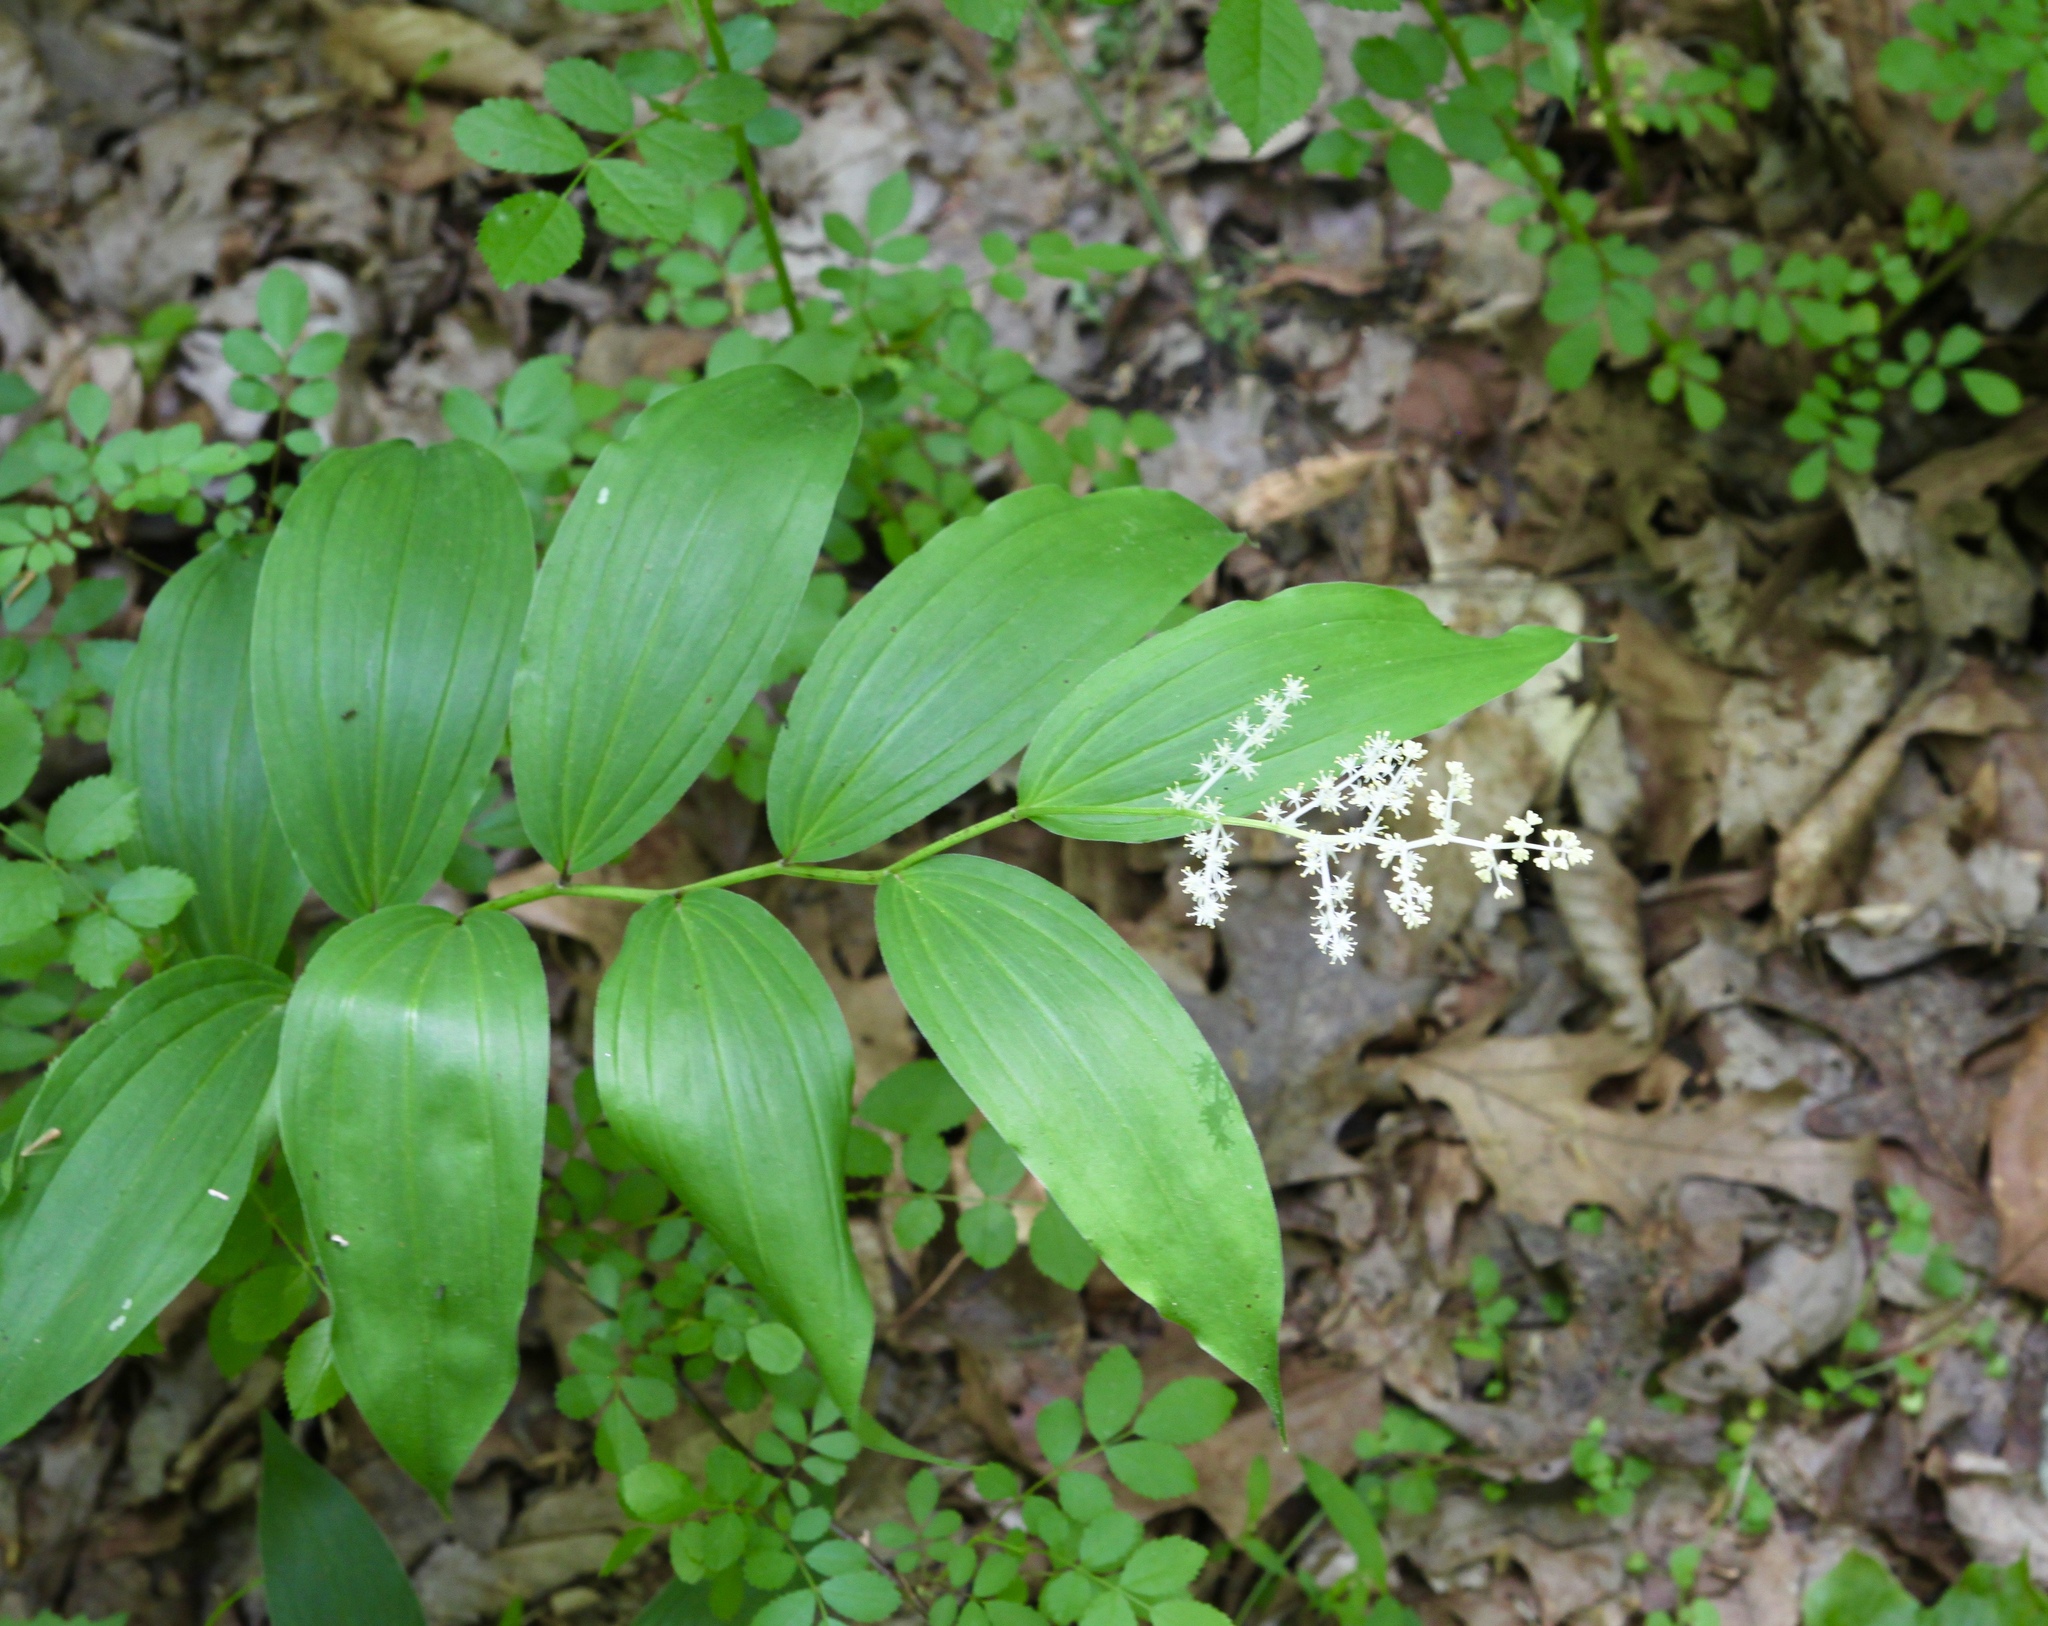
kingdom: Plantae
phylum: Tracheophyta
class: Liliopsida
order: Asparagales
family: Asparagaceae
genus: Maianthemum
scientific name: Maianthemum racemosum
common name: False spikenard
